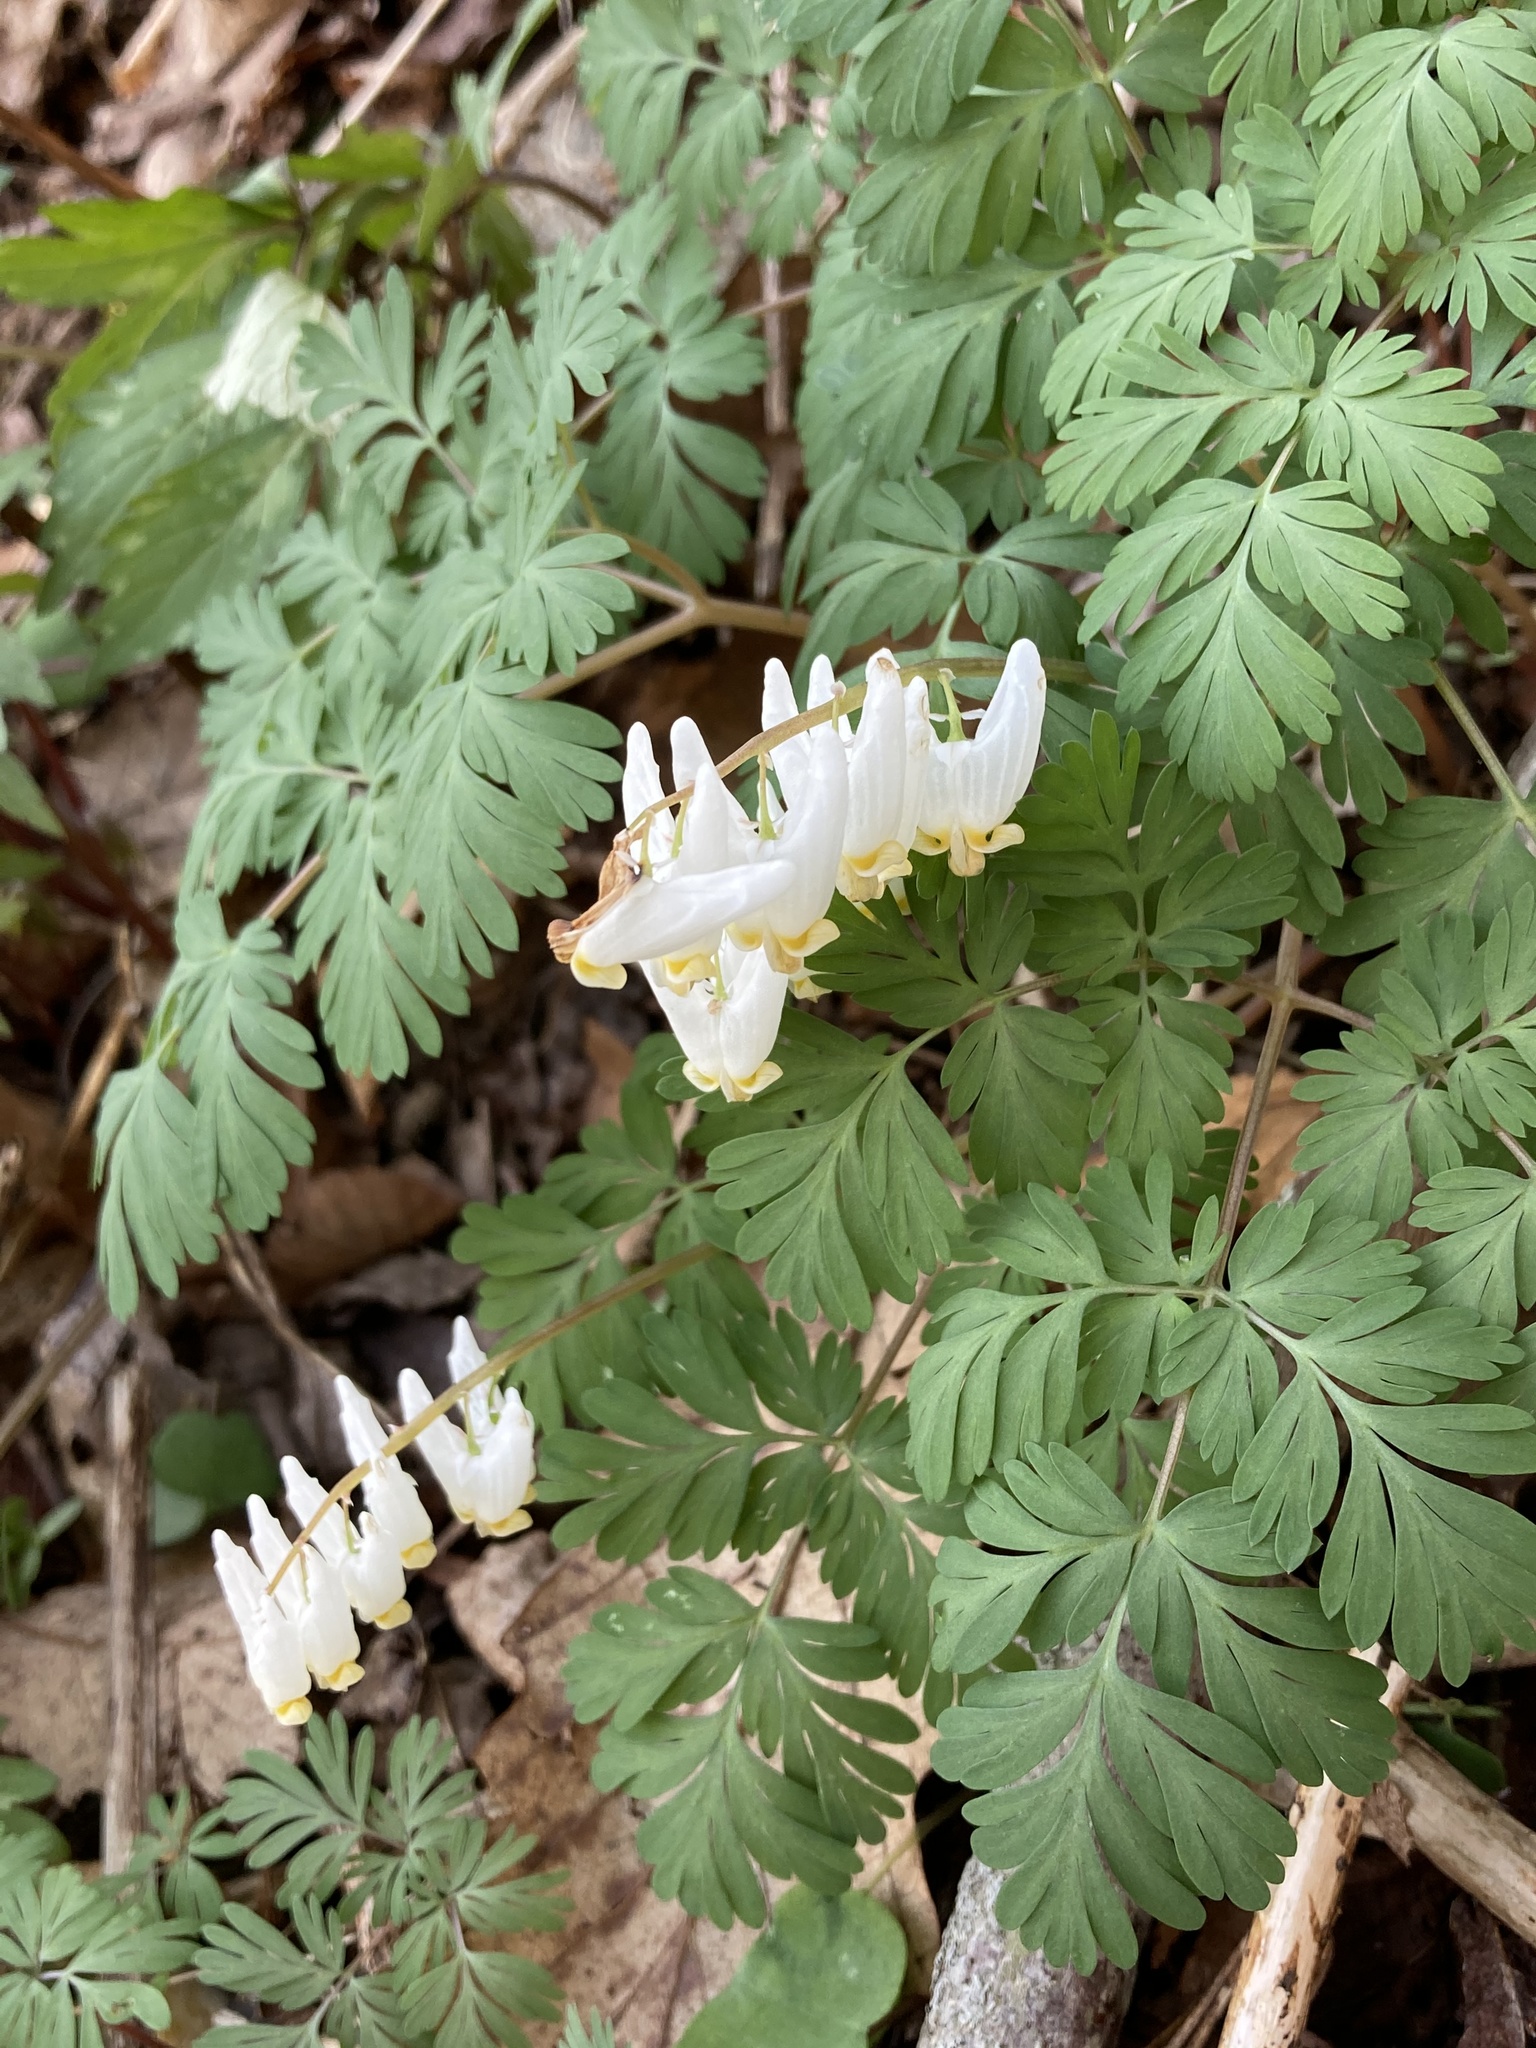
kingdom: Plantae
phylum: Tracheophyta
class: Magnoliopsida
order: Ranunculales
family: Papaveraceae
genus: Dicentra
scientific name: Dicentra cucullaria
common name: Dutchman's breeches
